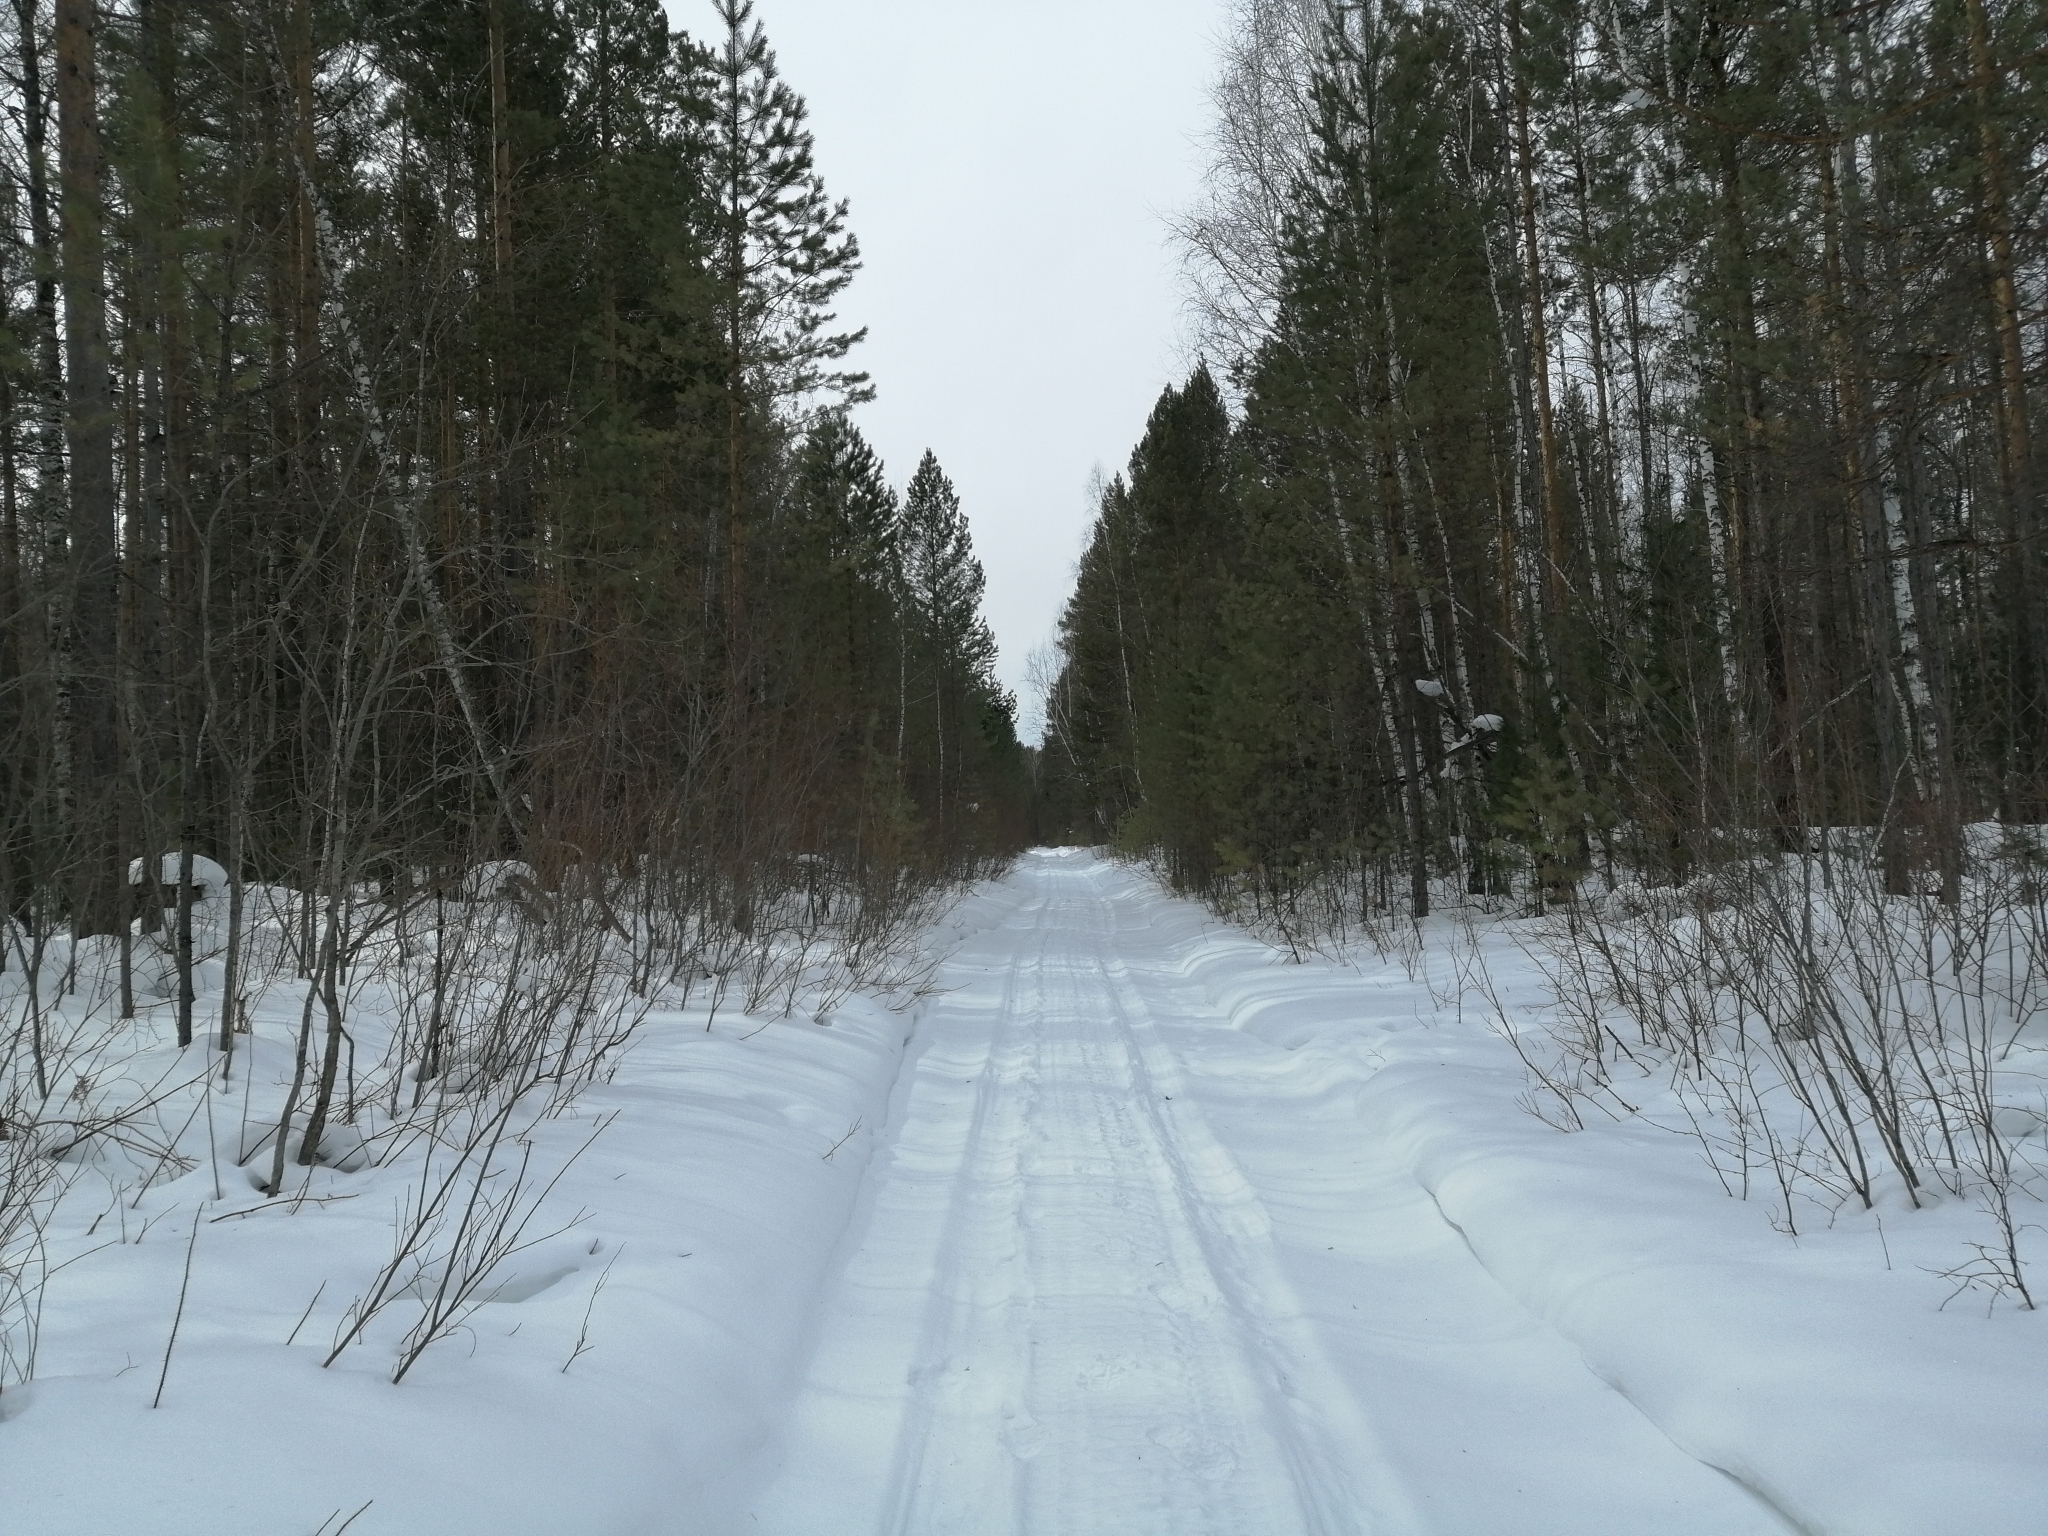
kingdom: Plantae
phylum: Tracheophyta
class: Pinopsida
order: Pinales
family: Pinaceae
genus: Pinus
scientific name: Pinus sylvestris
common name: Scots pine
